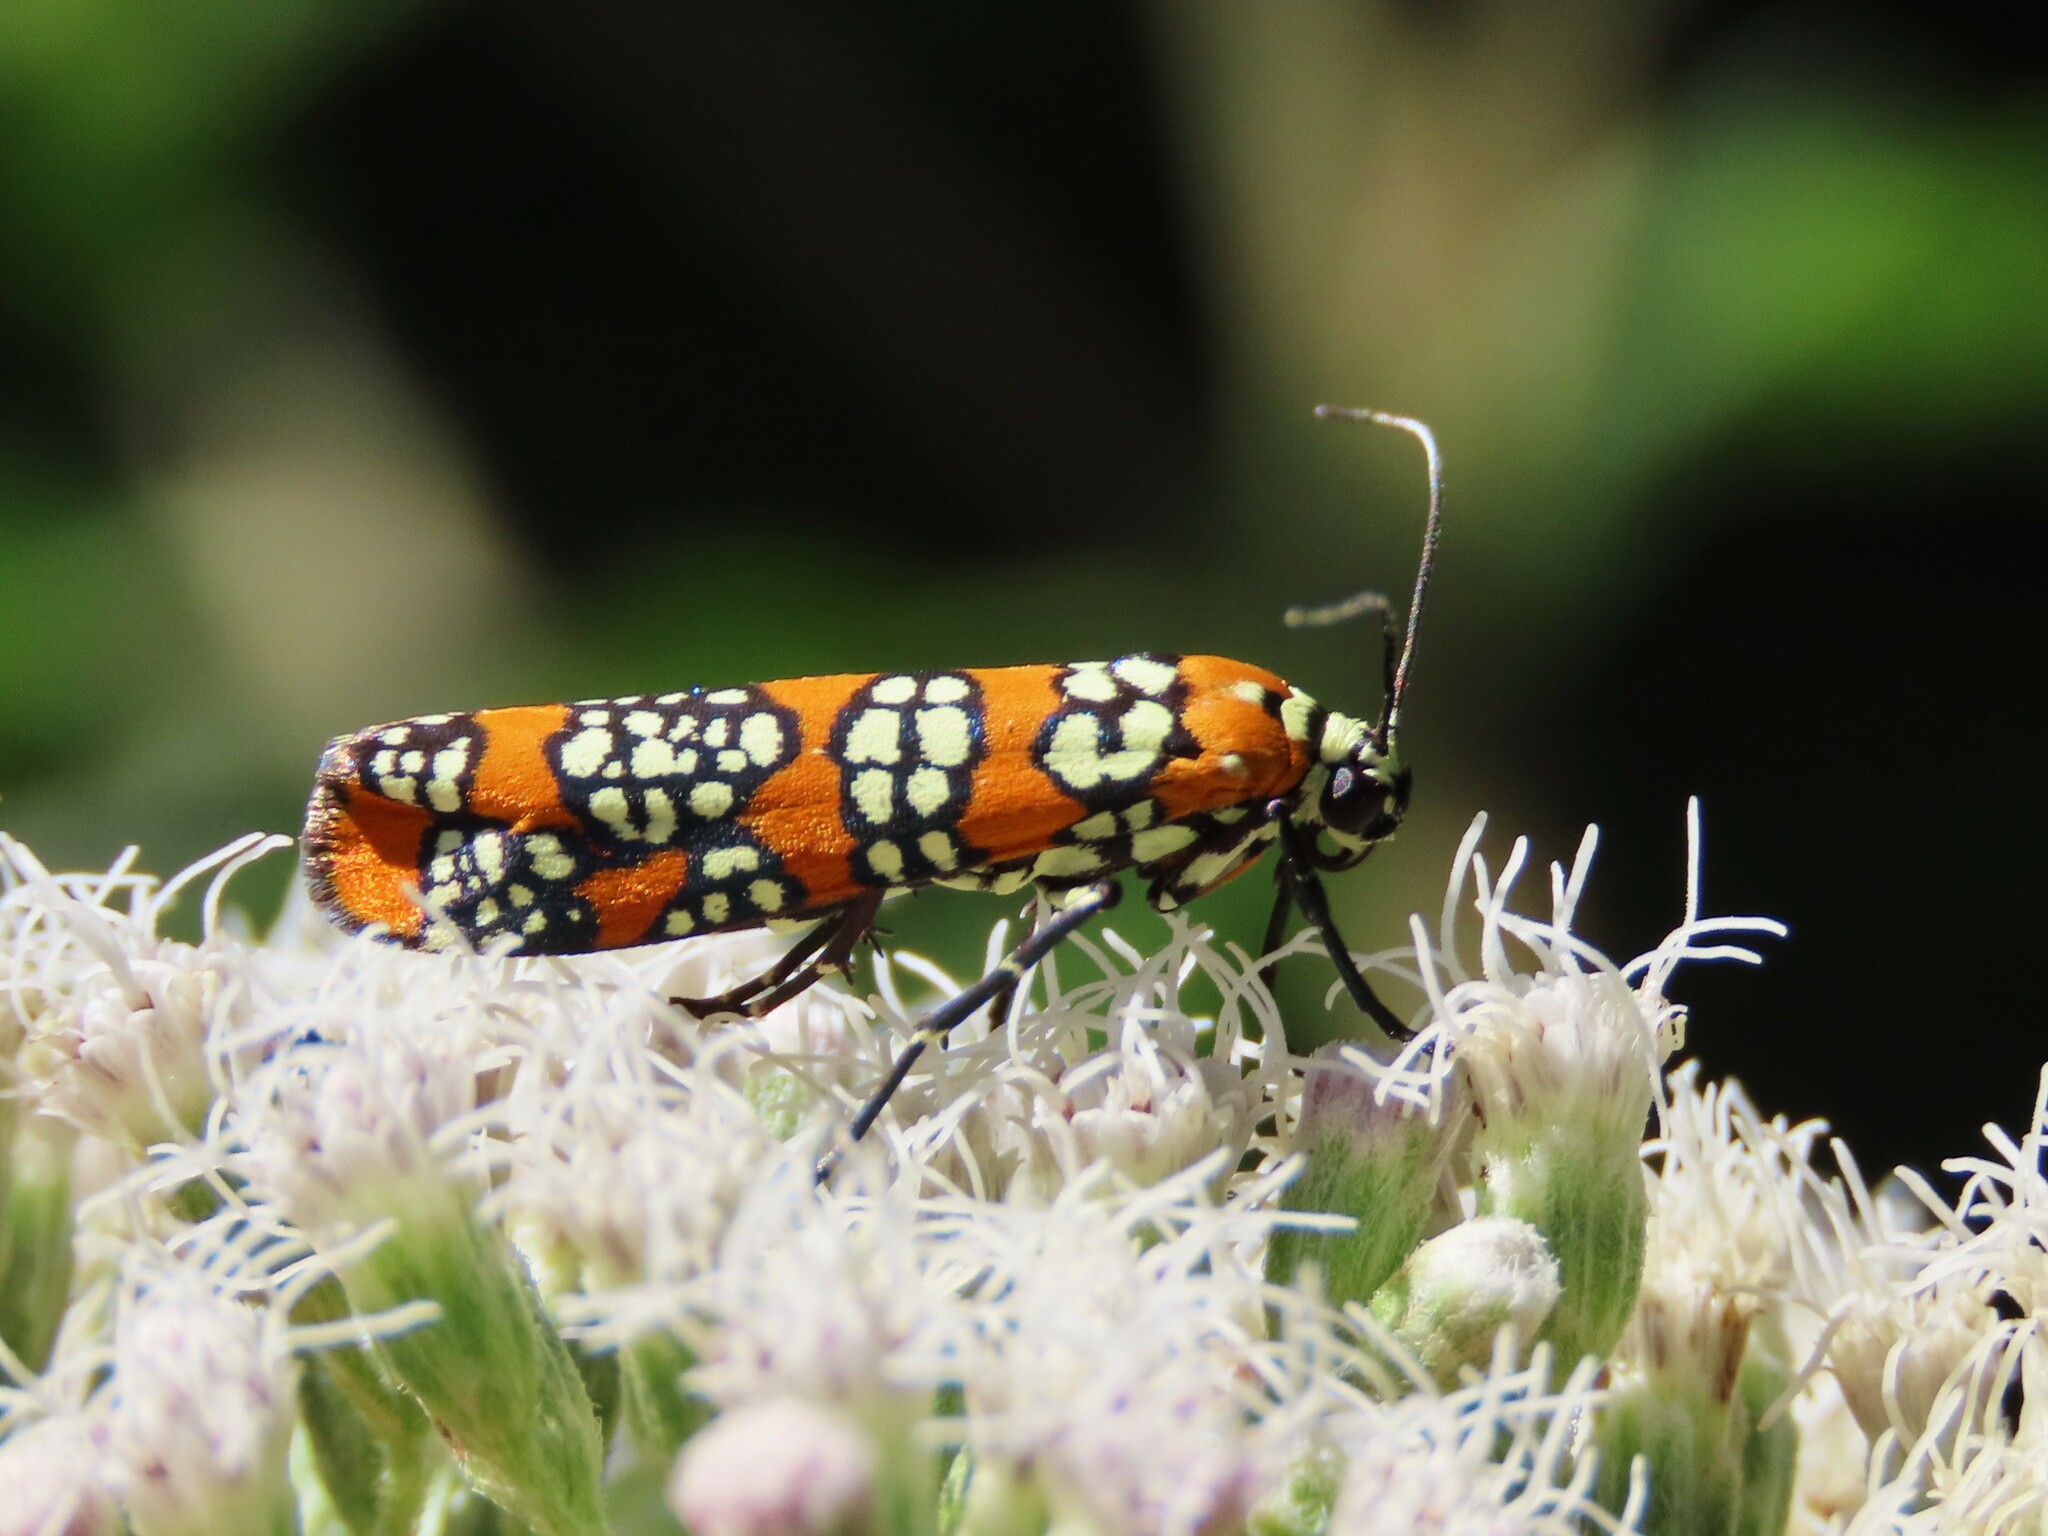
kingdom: Animalia
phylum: Arthropoda
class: Insecta
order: Lepidoptera
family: Attevidae
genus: Atteva
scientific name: Atteva punctella
